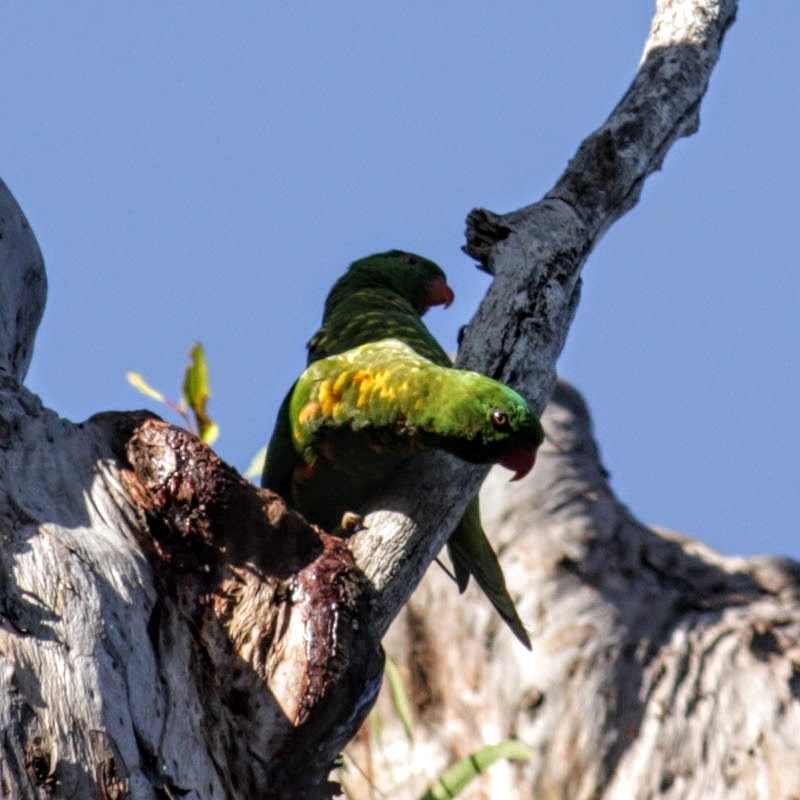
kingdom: Animalia
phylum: Chordata
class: Aves
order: Psittaciformes
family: Psittacidae
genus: Trichoglossus
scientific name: Trichoglossus chlorolepidotus
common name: Scaly-breasted lorikeet
